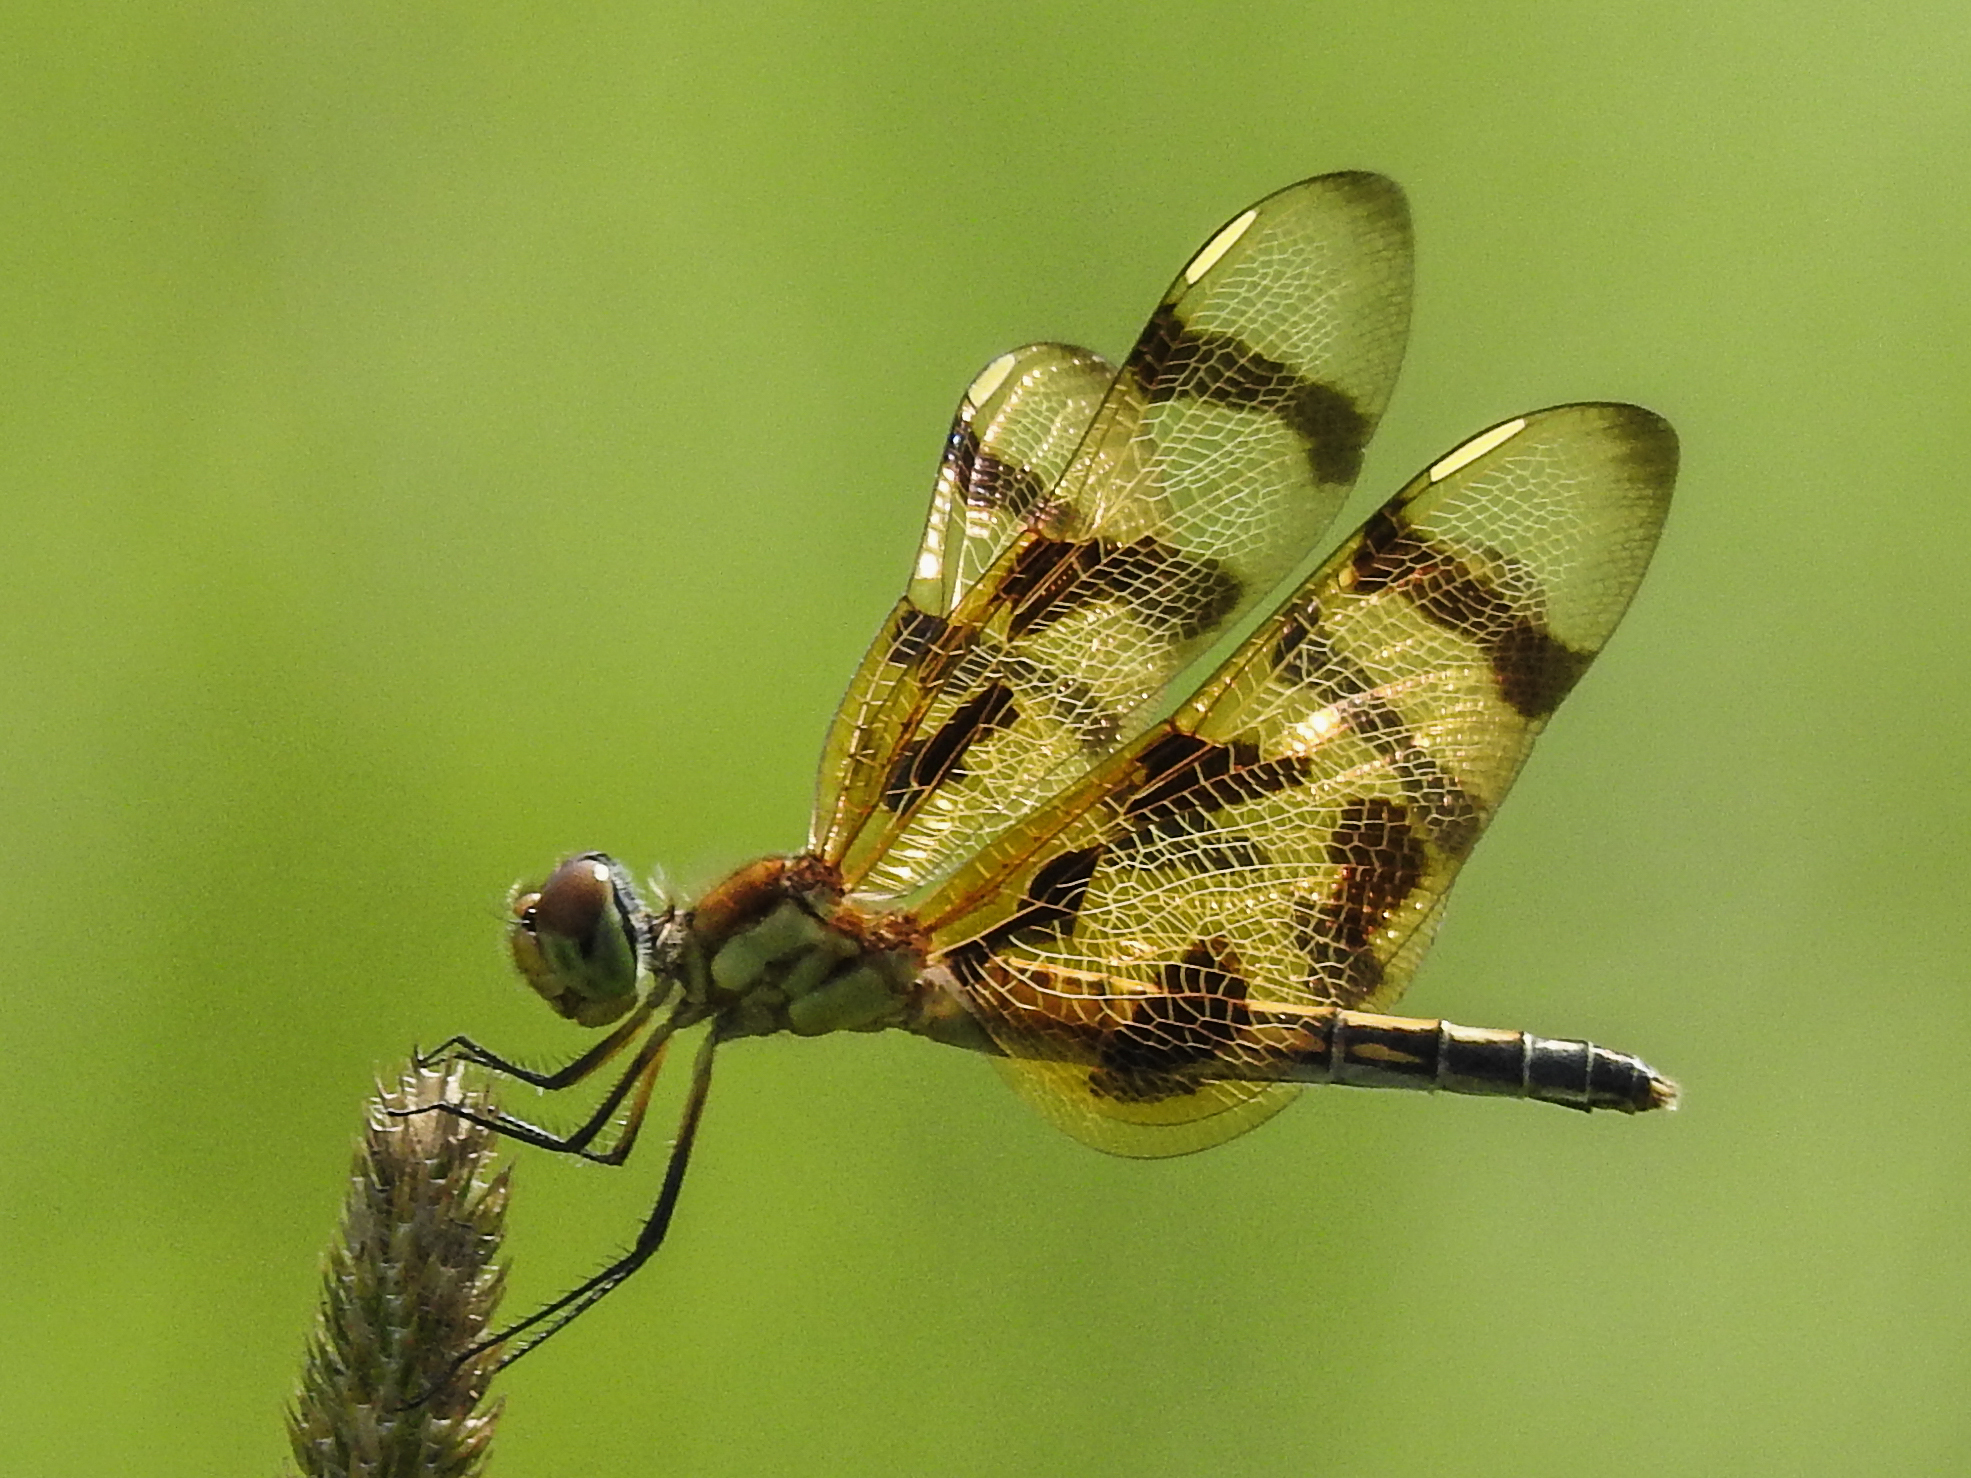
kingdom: Animalia
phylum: Arthropoda
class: Insecta
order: Odonata
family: Libellulidae
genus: Celithemis
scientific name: Celithemis eponina
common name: Halloween pennant
